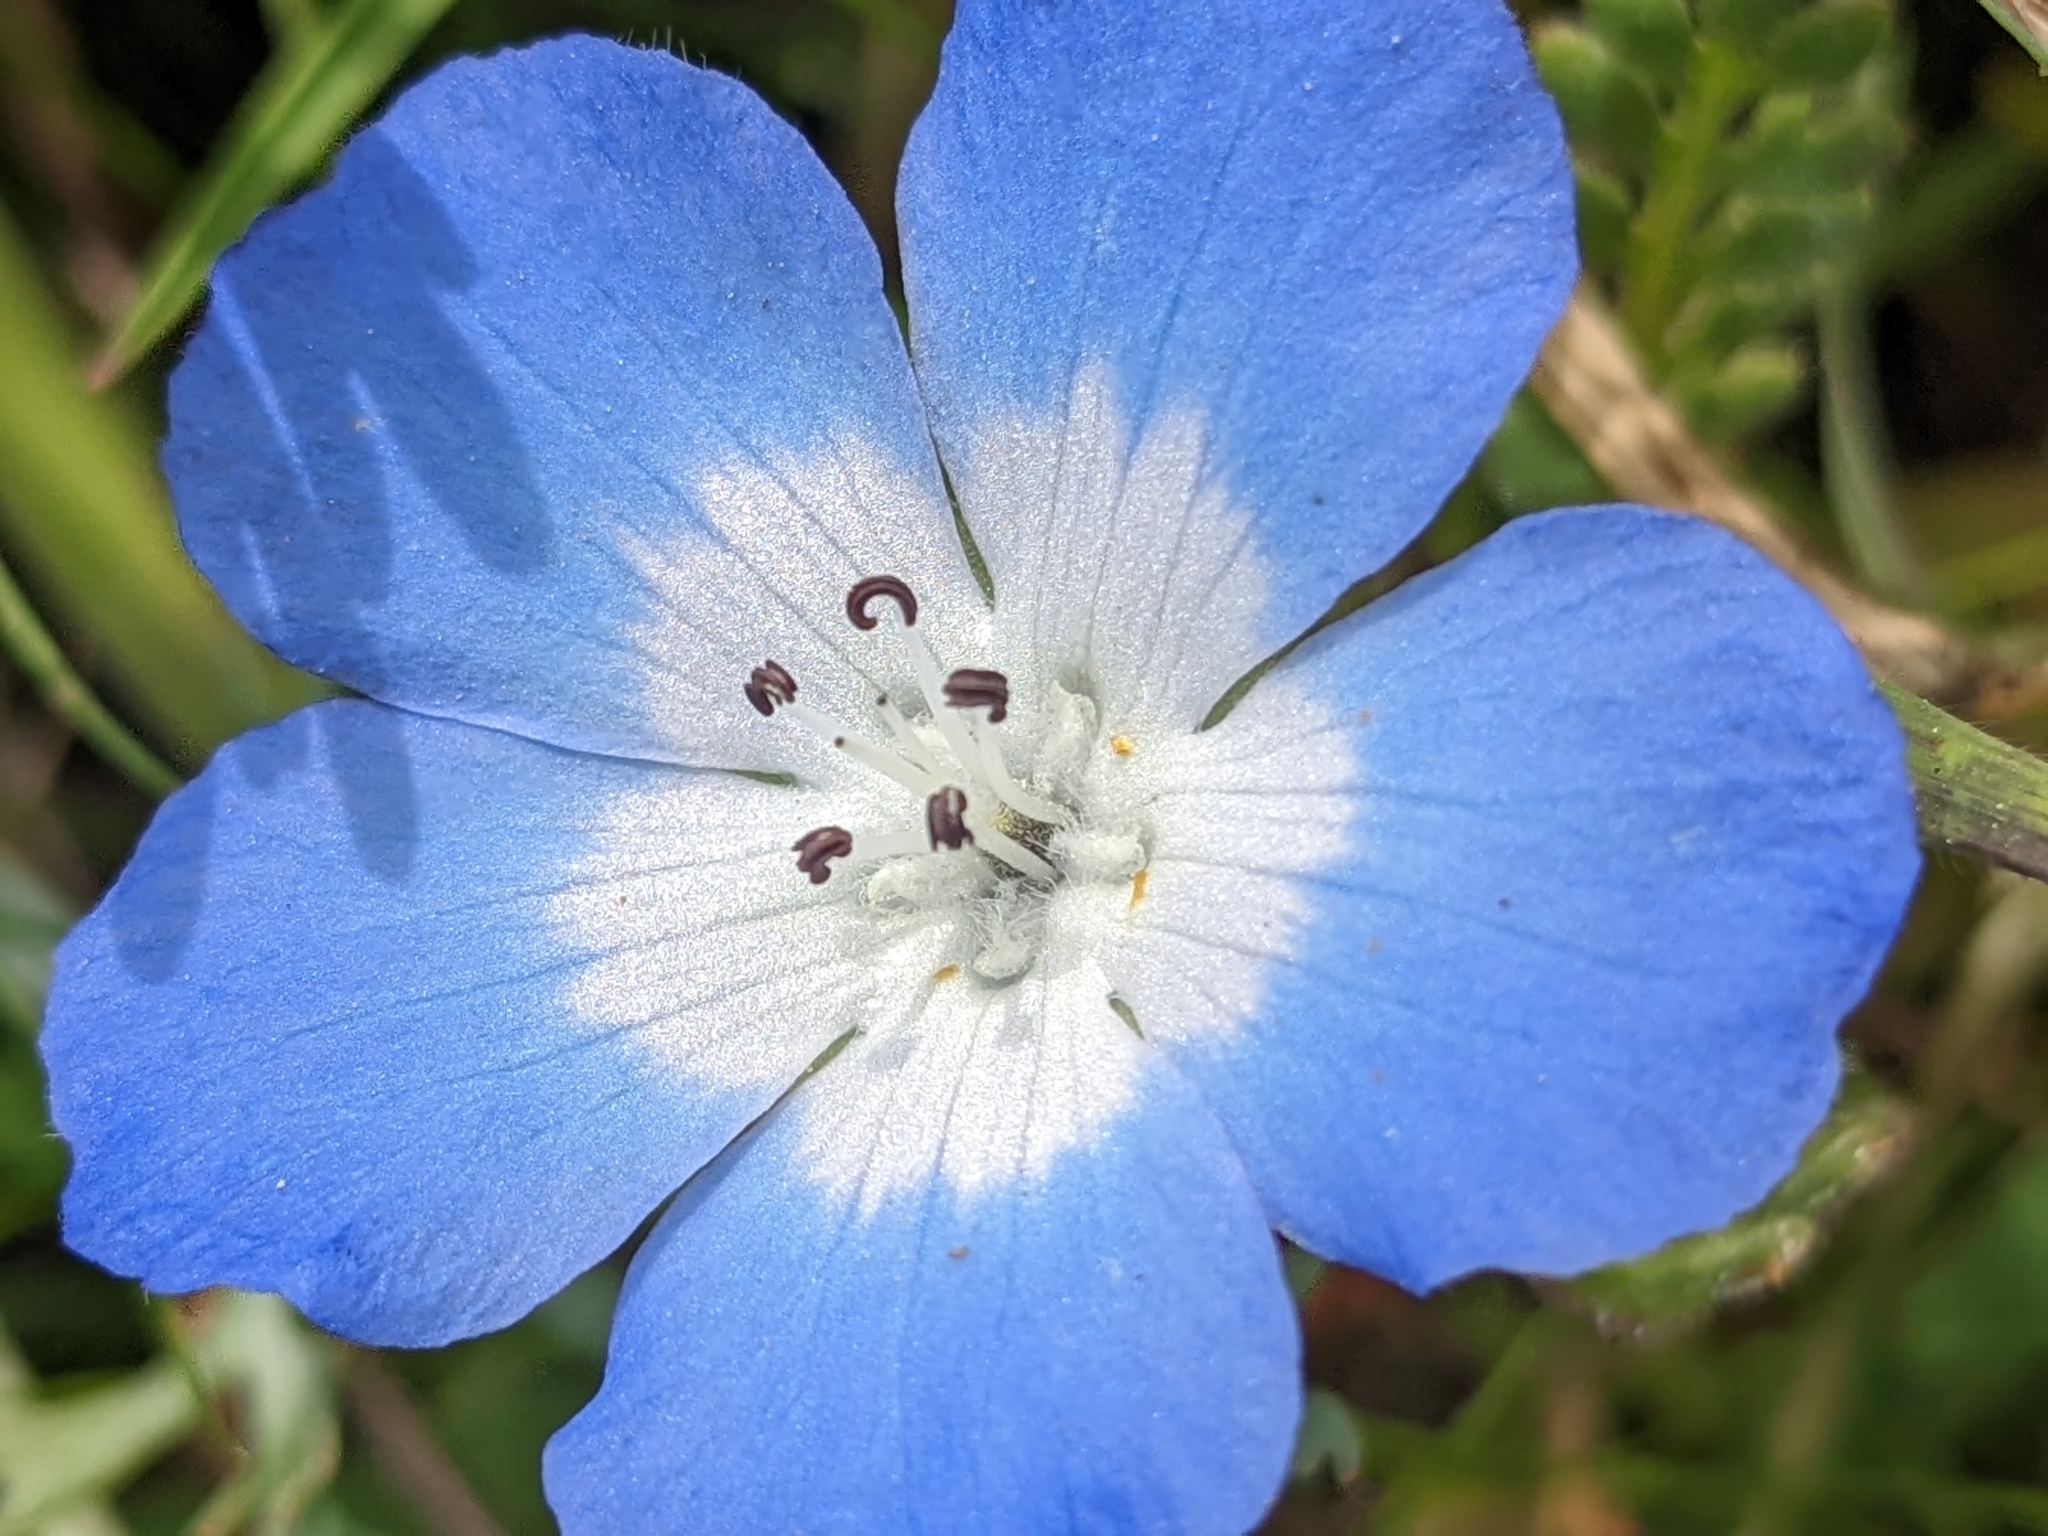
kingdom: Plantae
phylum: Tracheophyta
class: Magnoliopsida
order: Boraginales
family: Hydrophyllaceae
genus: Nemophila
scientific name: Nemophila menziesii
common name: Baby's-blue-eyes
